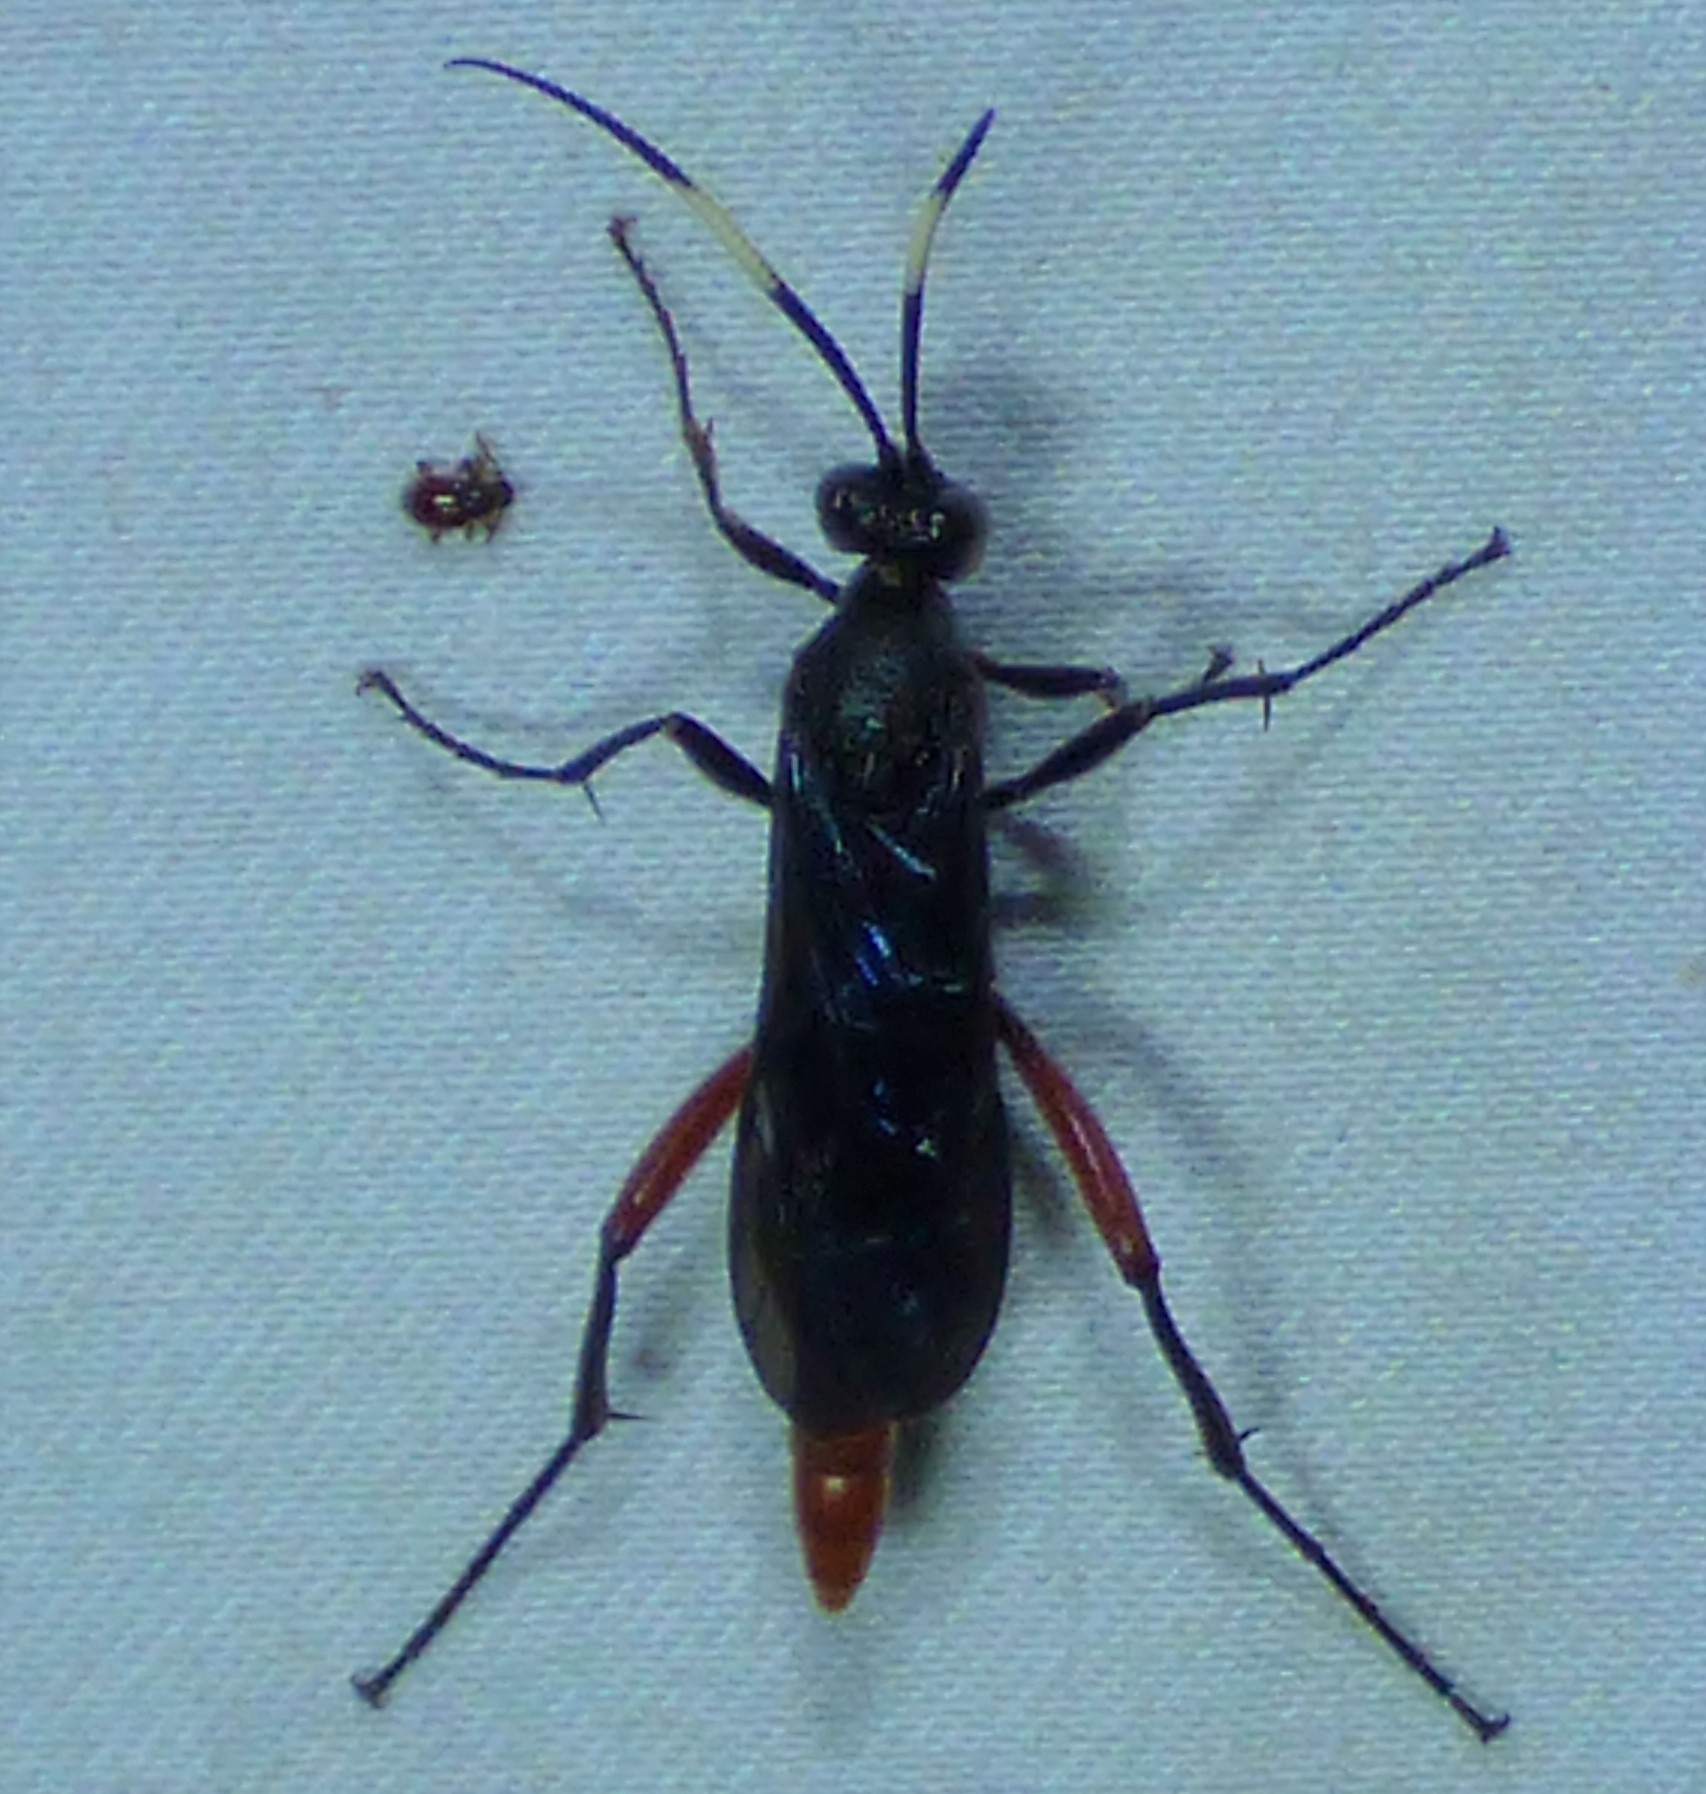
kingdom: Animalia
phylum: Arthropoda
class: Insecta
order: Hymenoptera
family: Ichneumonidae
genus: Limonethe
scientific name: Limonethe maurator
